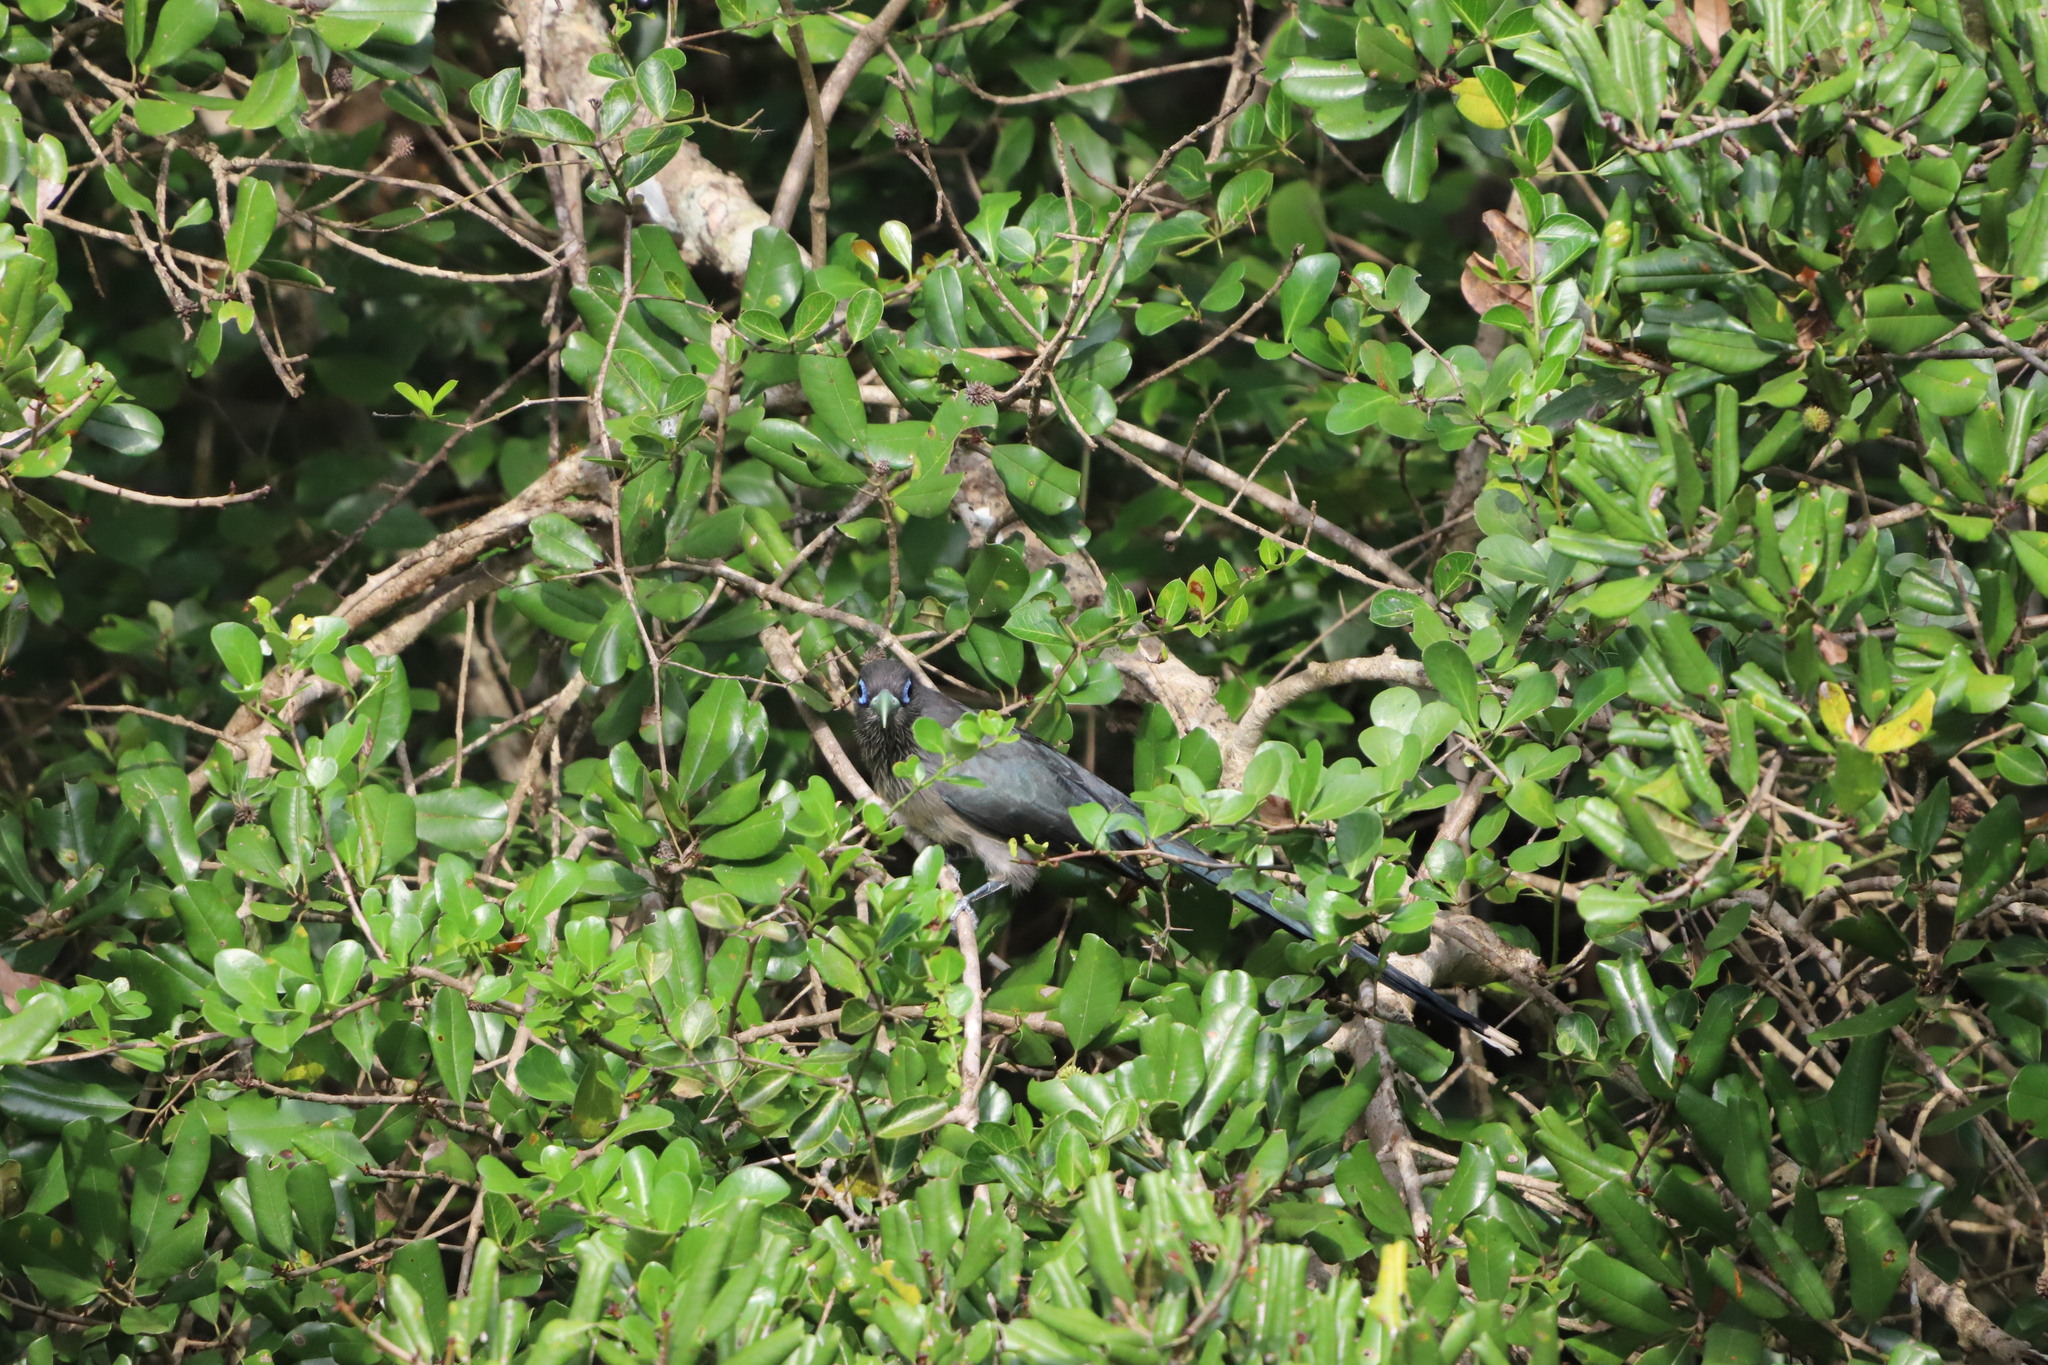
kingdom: Animalia
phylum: Chordata
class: Aves
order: Cuculiformes
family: Cuculidae
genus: Rhopodytes
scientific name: Rhopodytes viridirostris
